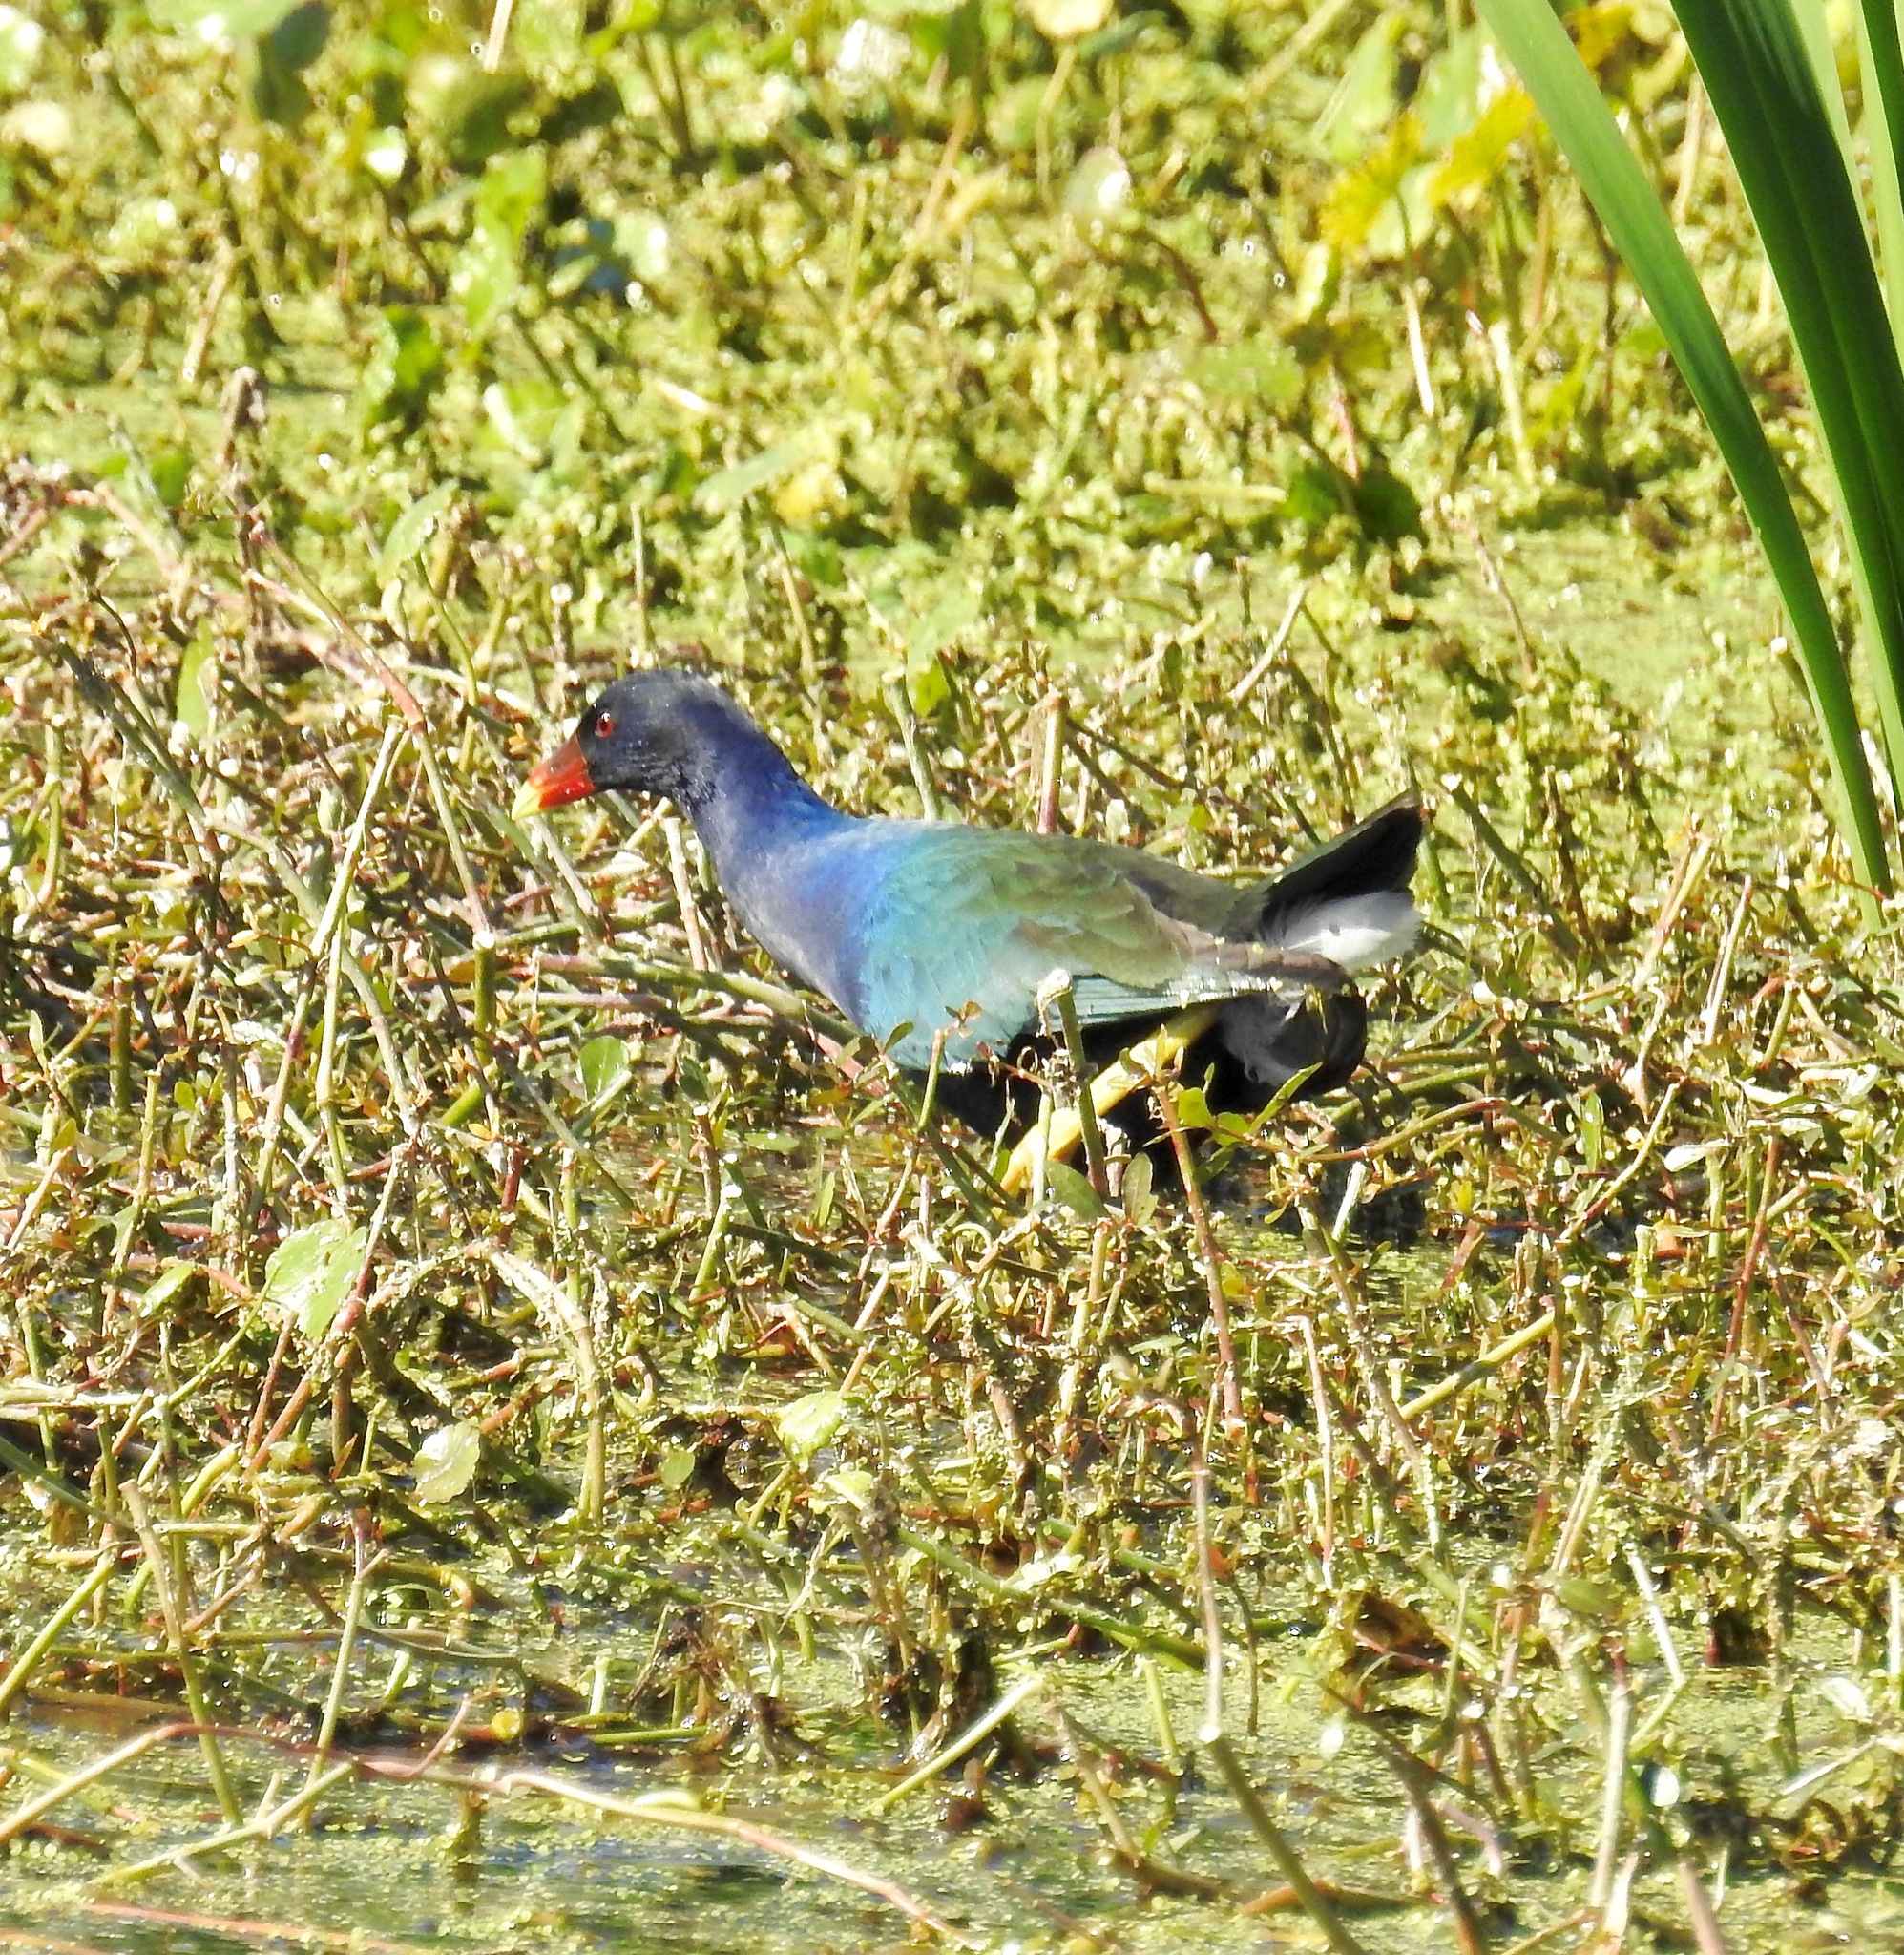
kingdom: Animalia
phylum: Chordata
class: Aves
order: Gruiformes
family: Rallidae
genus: Porphyrio
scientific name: Porphyrio martinica
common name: Purple gallinule
